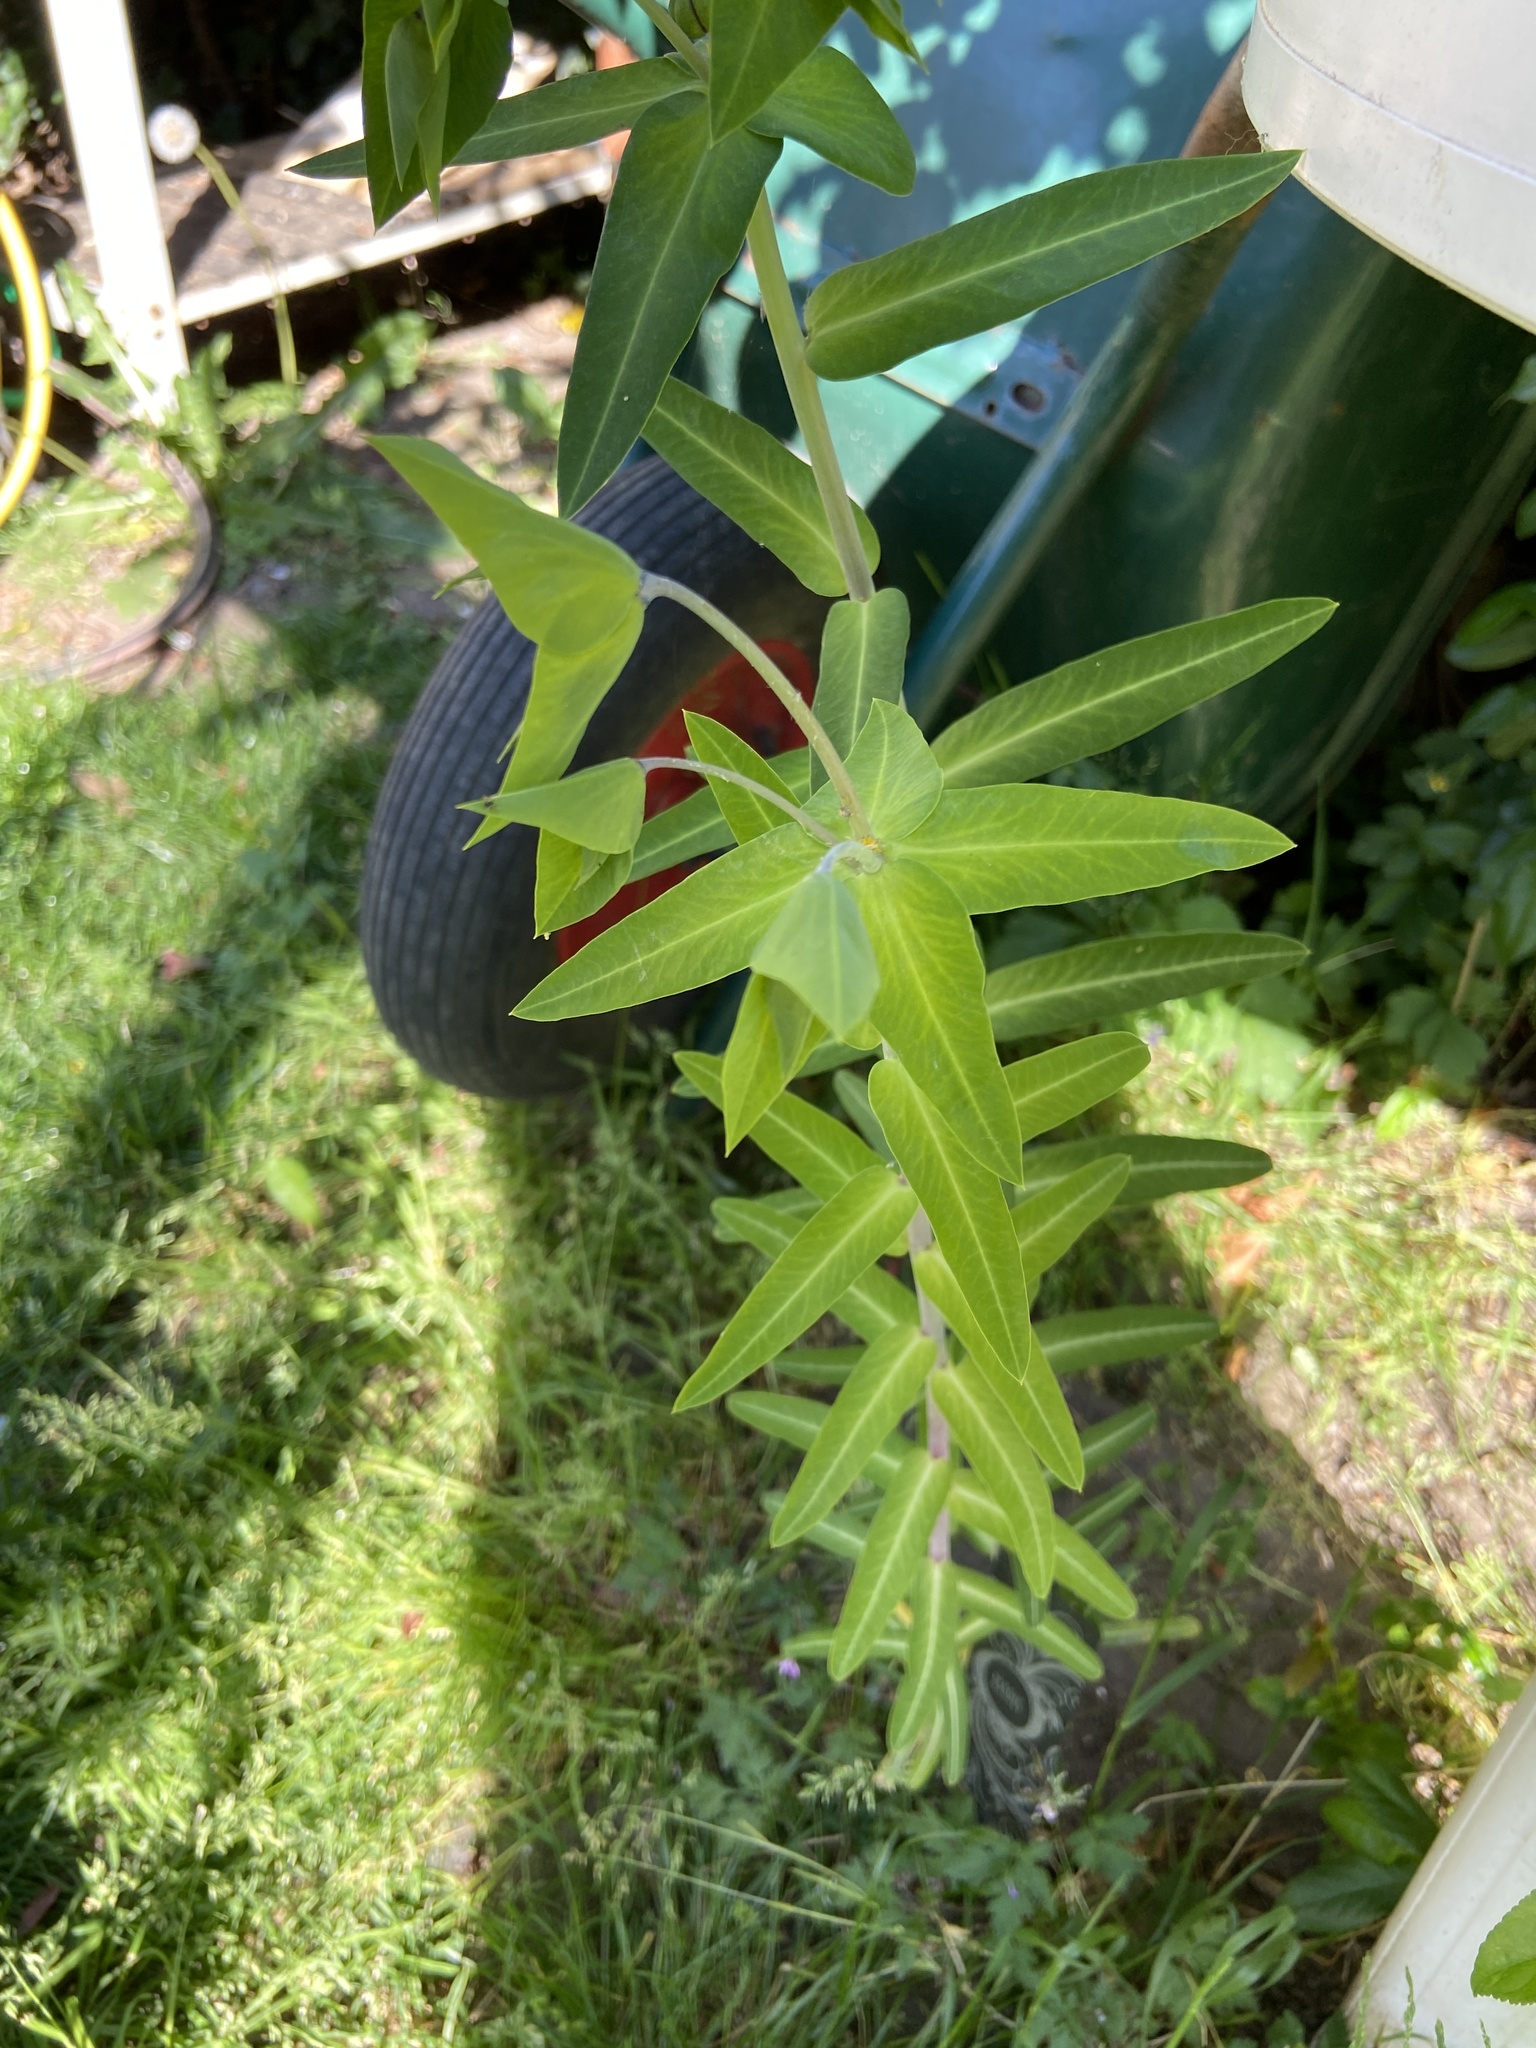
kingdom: Plantae
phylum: Tracheophyta
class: Magnoliopsida
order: Malpighiales
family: Euphorbiaceae
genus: Euphorbia
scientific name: Euphorbia lathyris
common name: Caper spurge
